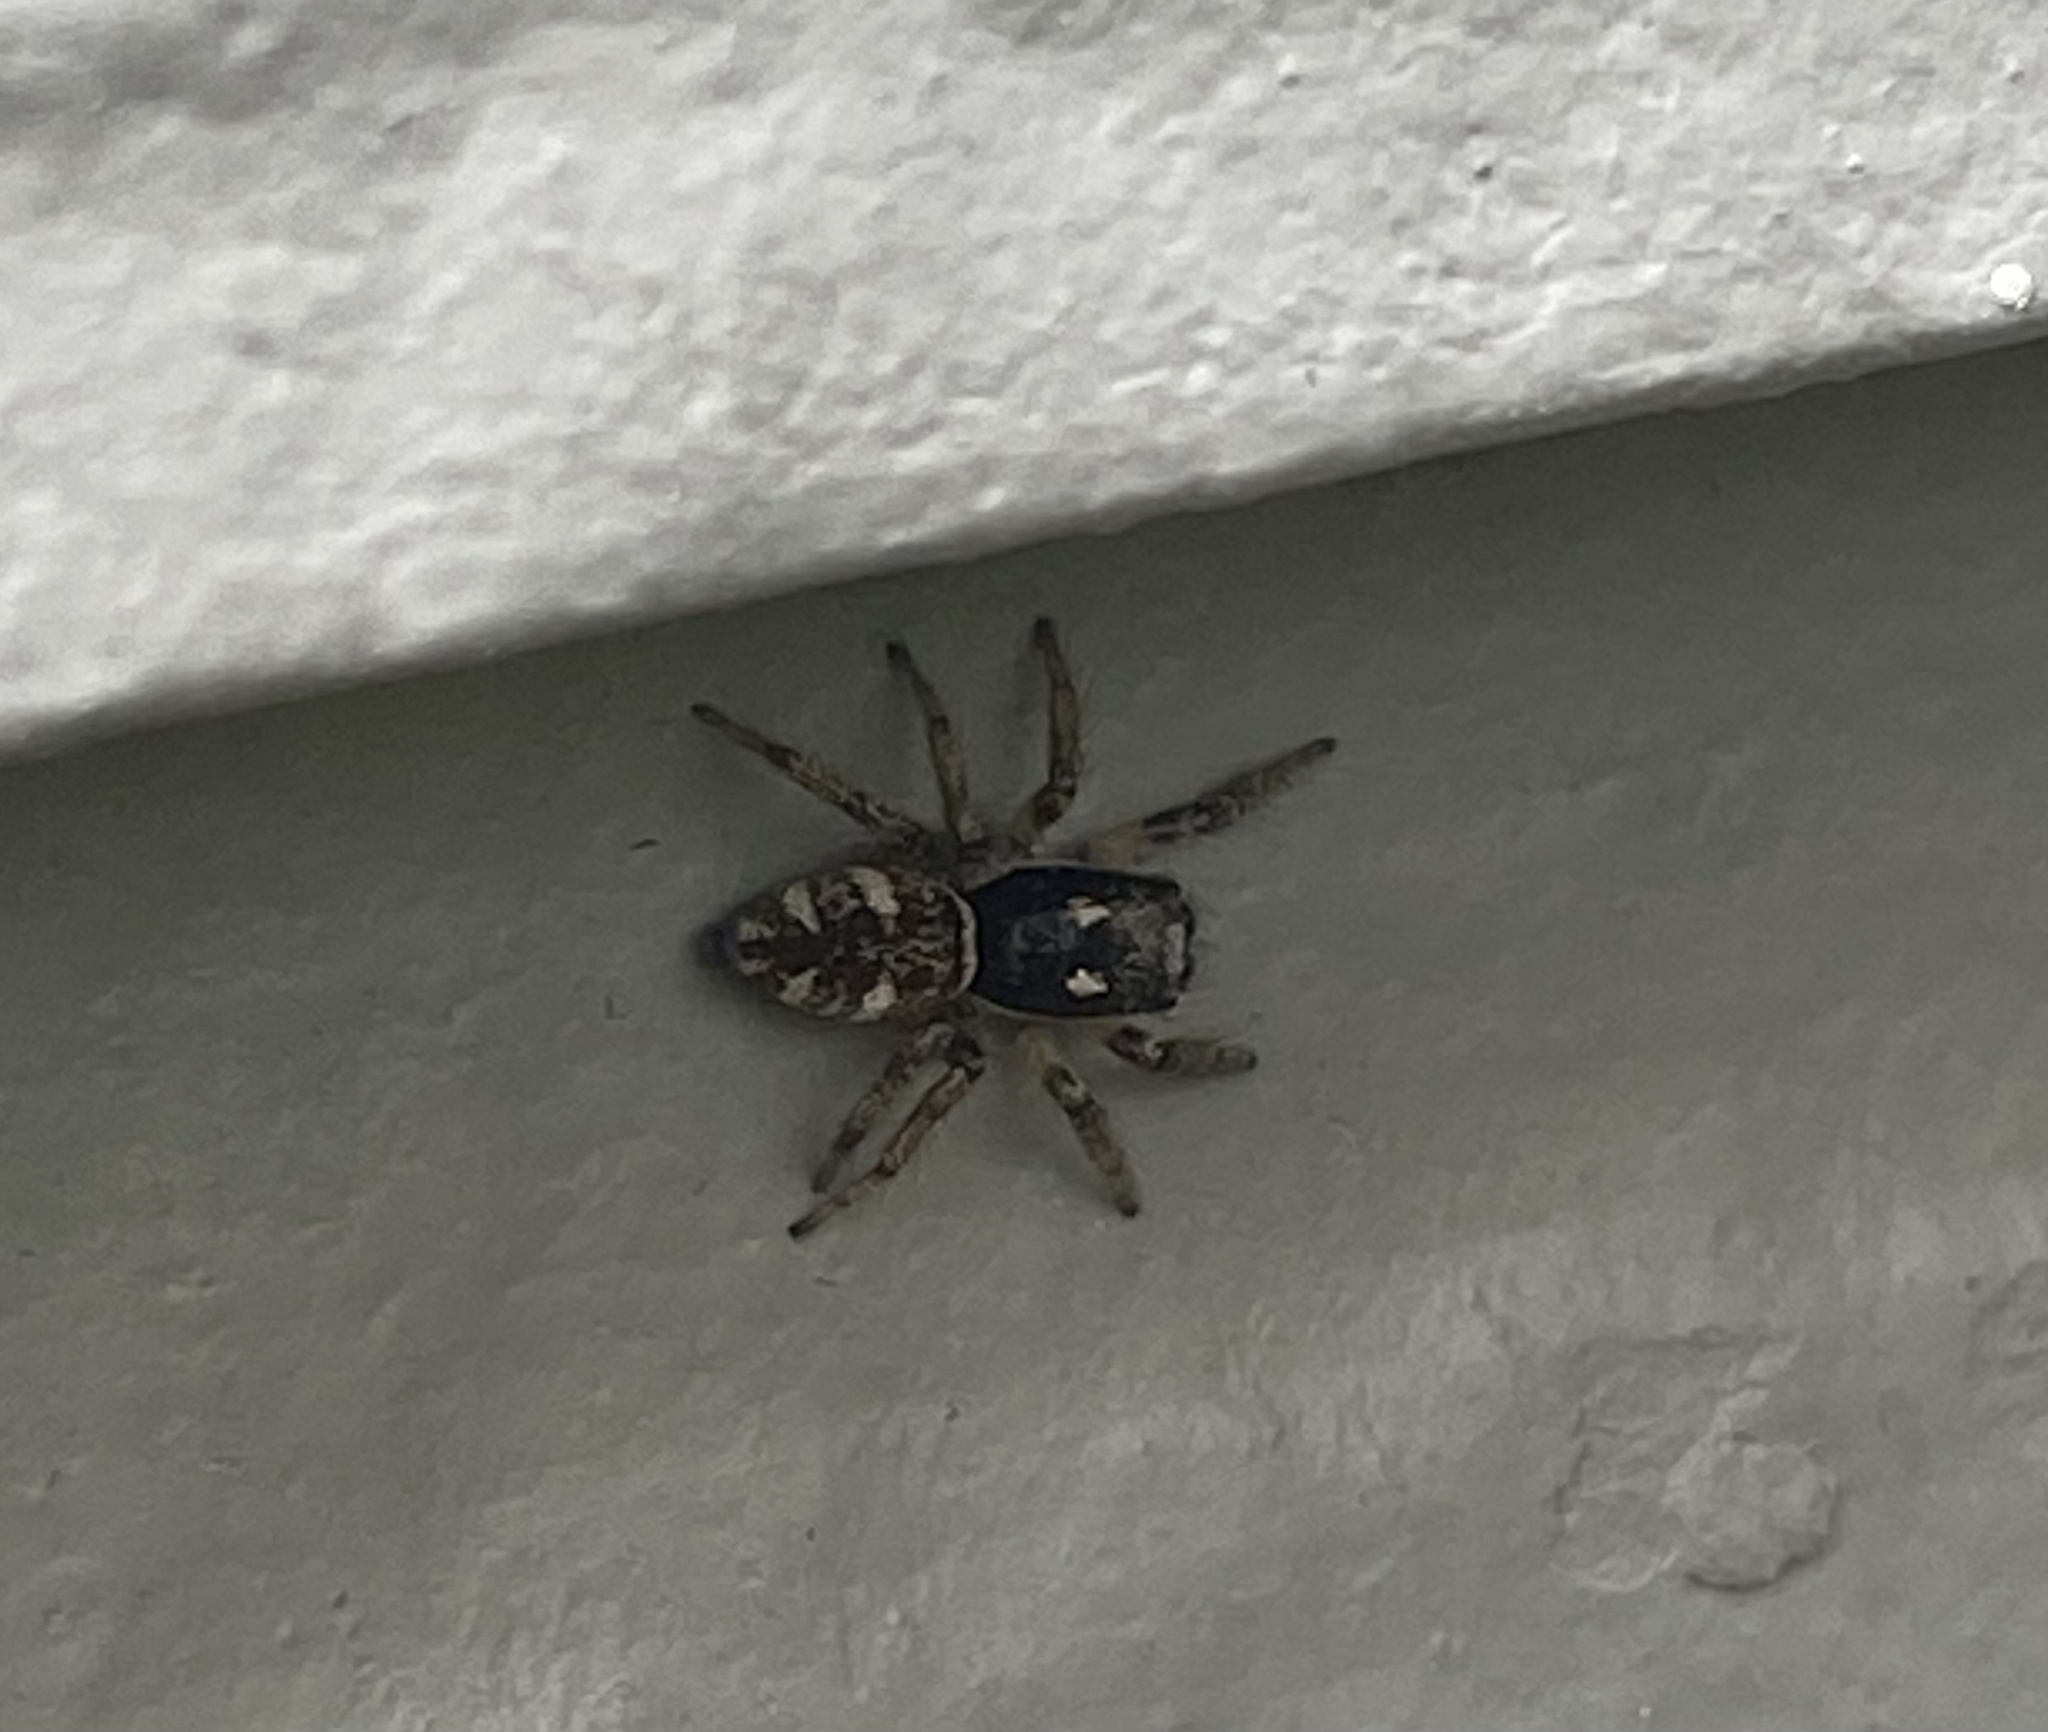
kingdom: Animalia
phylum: Arthropoda
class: Arachnida
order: Araneae
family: Salticidae
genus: Salticus
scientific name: Salticus scenicus
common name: Zebra jumper
